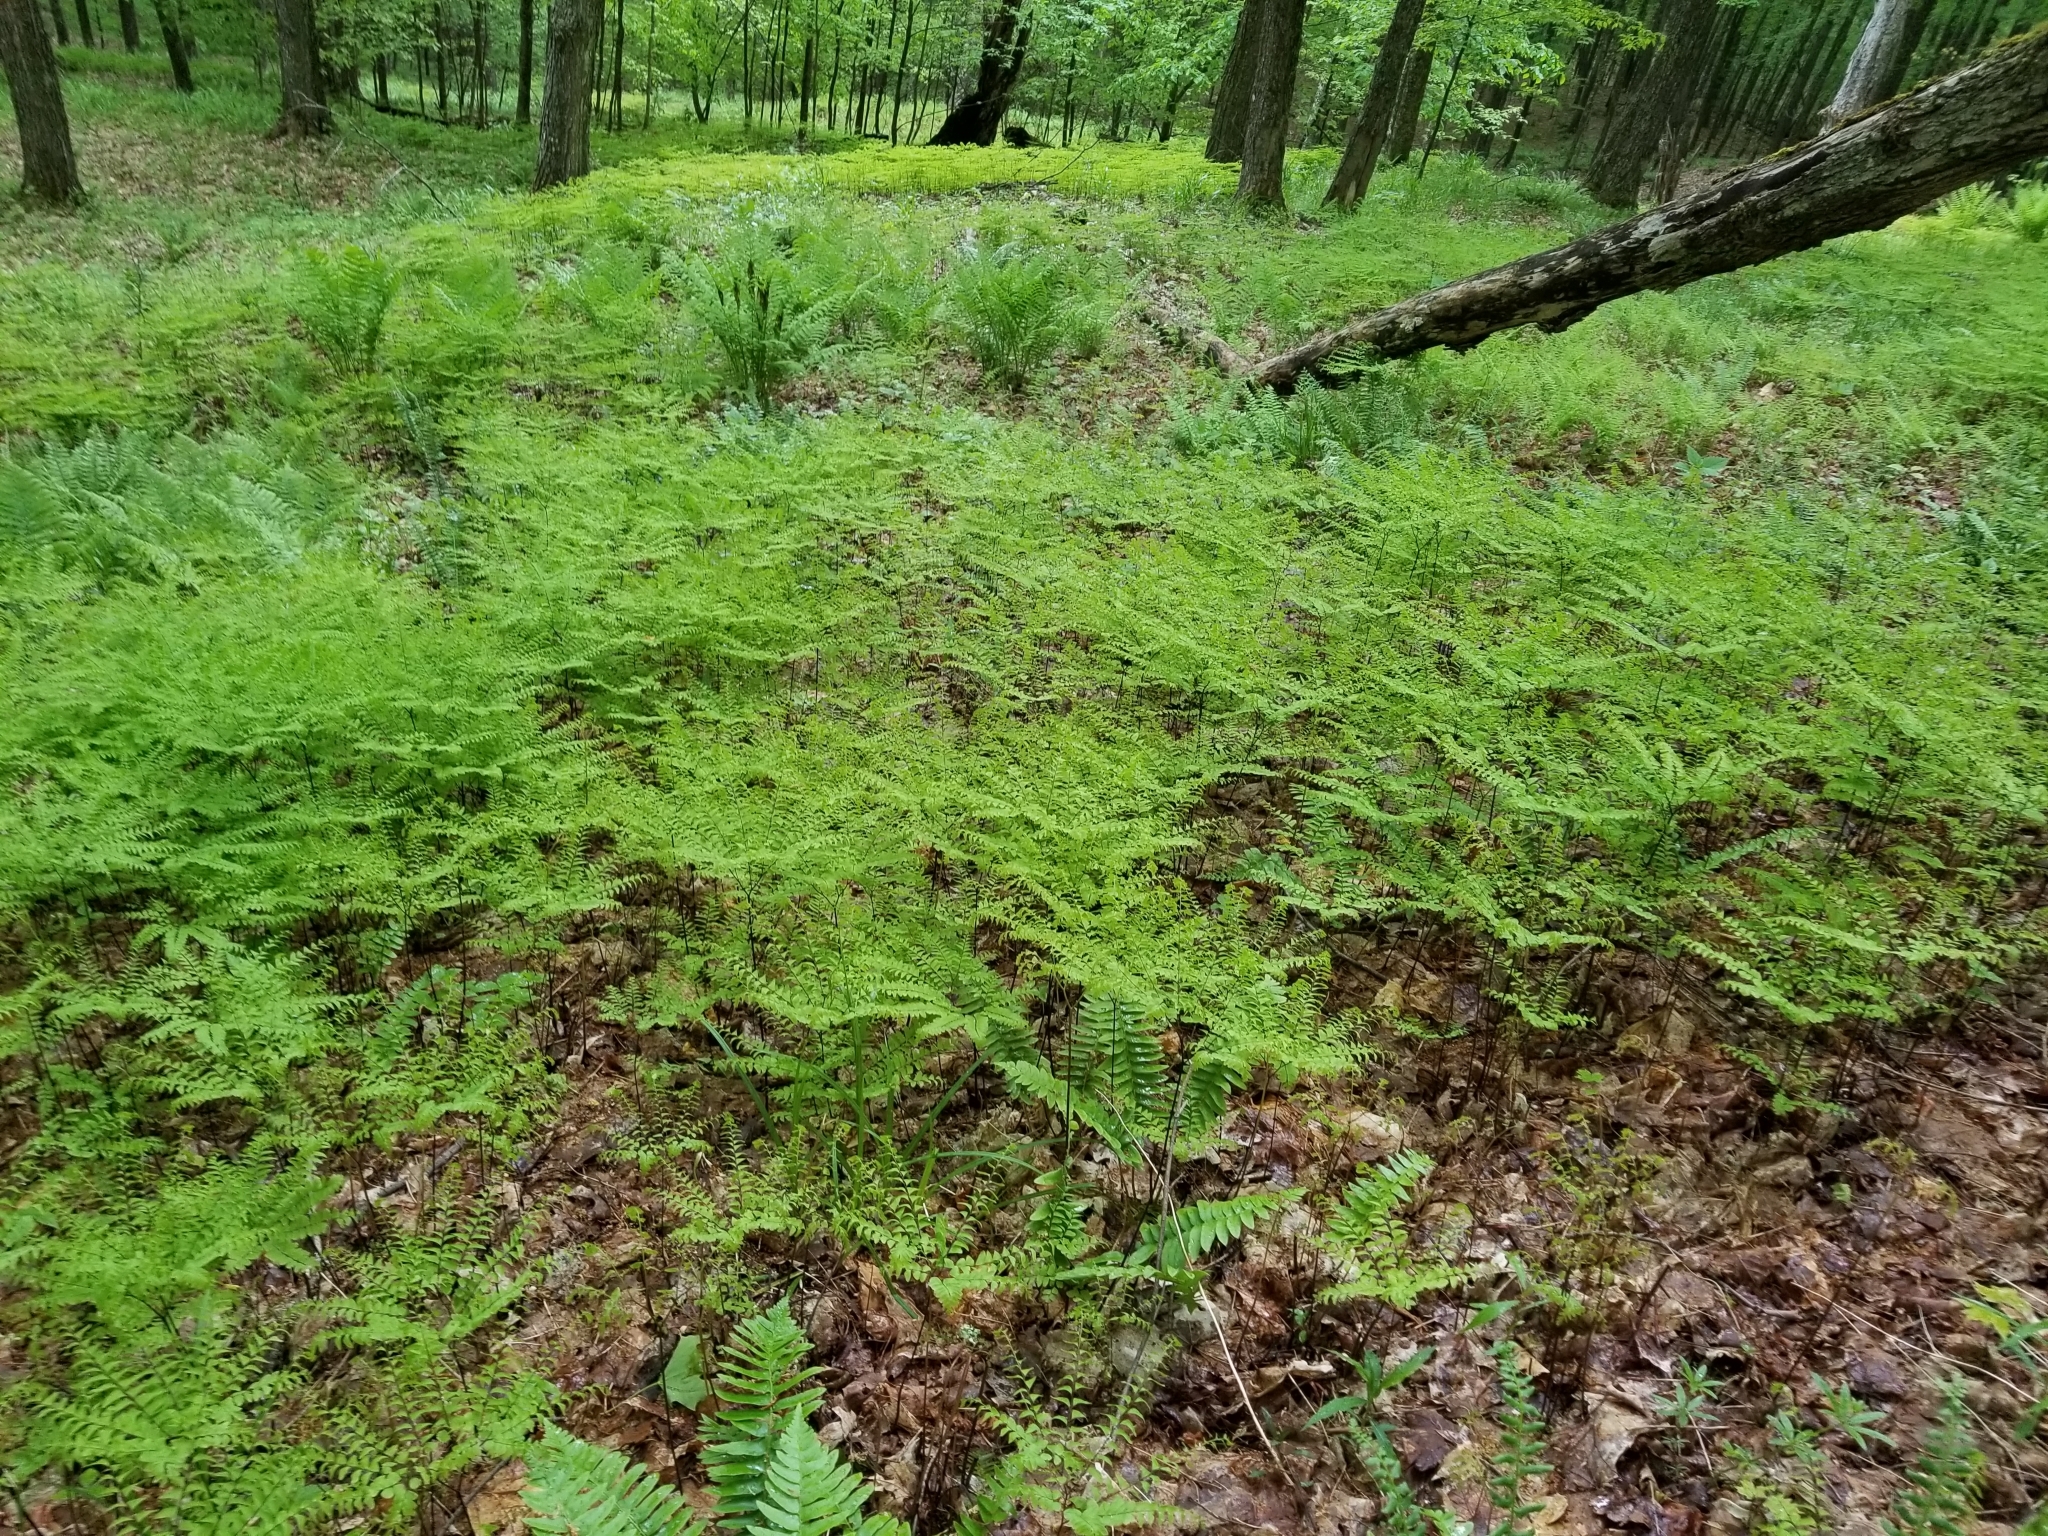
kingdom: Plantae
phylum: Tracheophyta
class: Polypodiopsida
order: Polypodiales
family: Pteridaceae
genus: Adiantum
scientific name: Adiantum pedatum
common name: Five-finger fern
